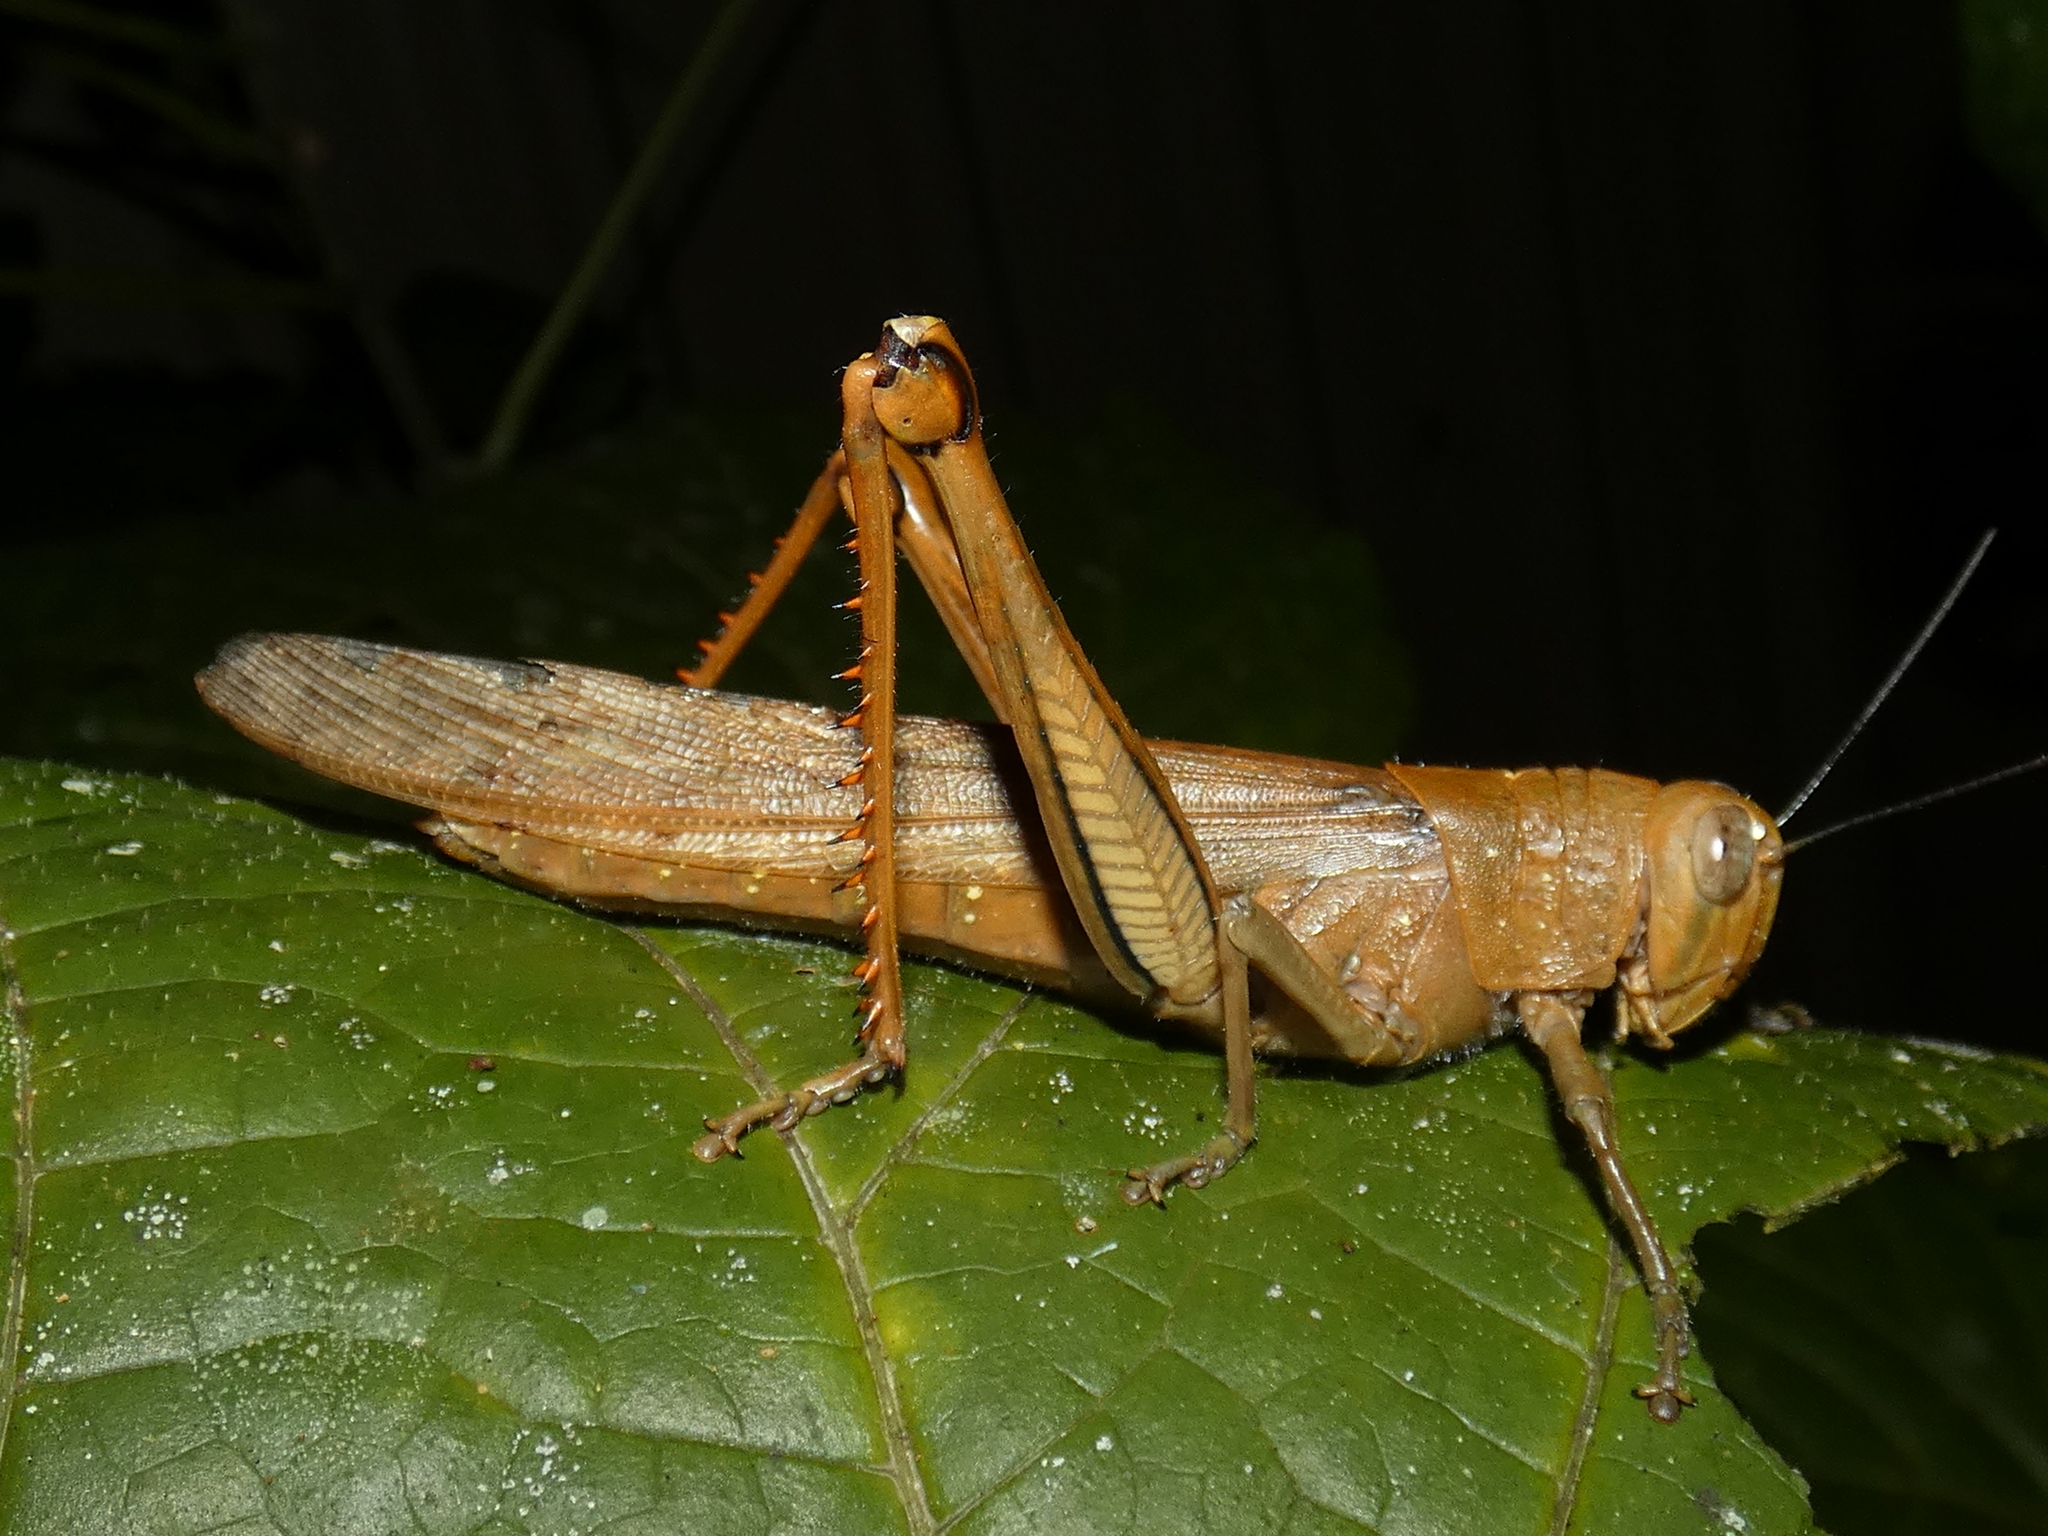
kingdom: Animalia
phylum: Arthropoda
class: Insecta
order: Orthoptera
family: Acrididae
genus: Valanga
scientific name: Valanga irregularis
